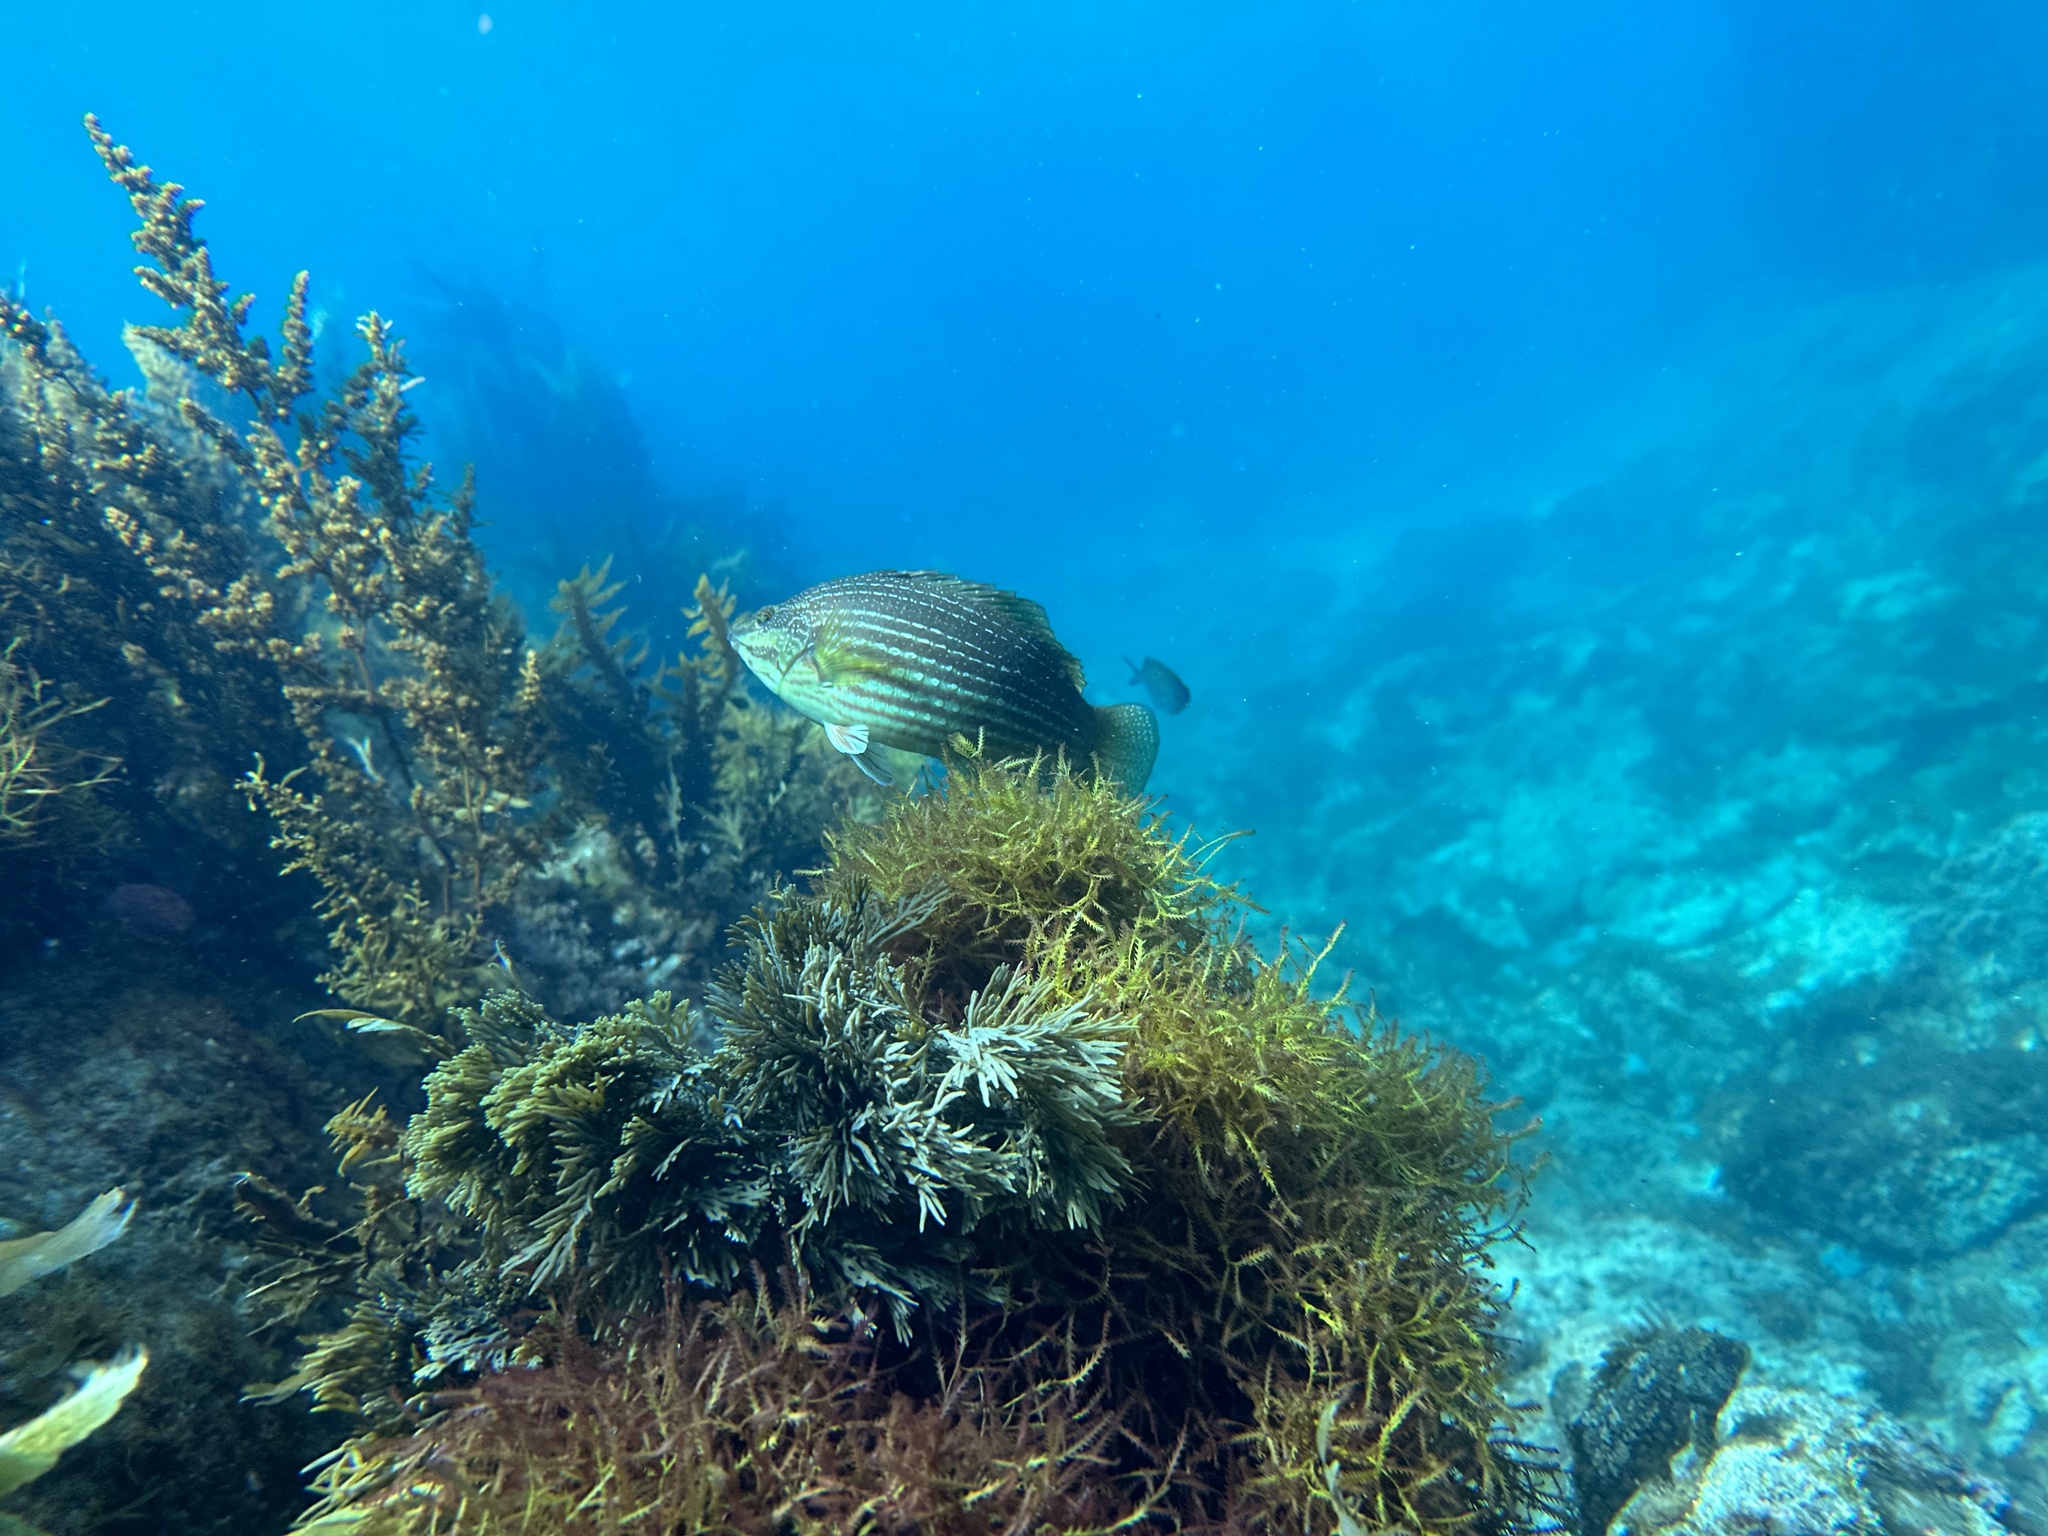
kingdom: Animalia
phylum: Chordata
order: Perciformes
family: Labridae
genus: Notolabrus
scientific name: Notolabrus inscriptus
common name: Green wrasse
